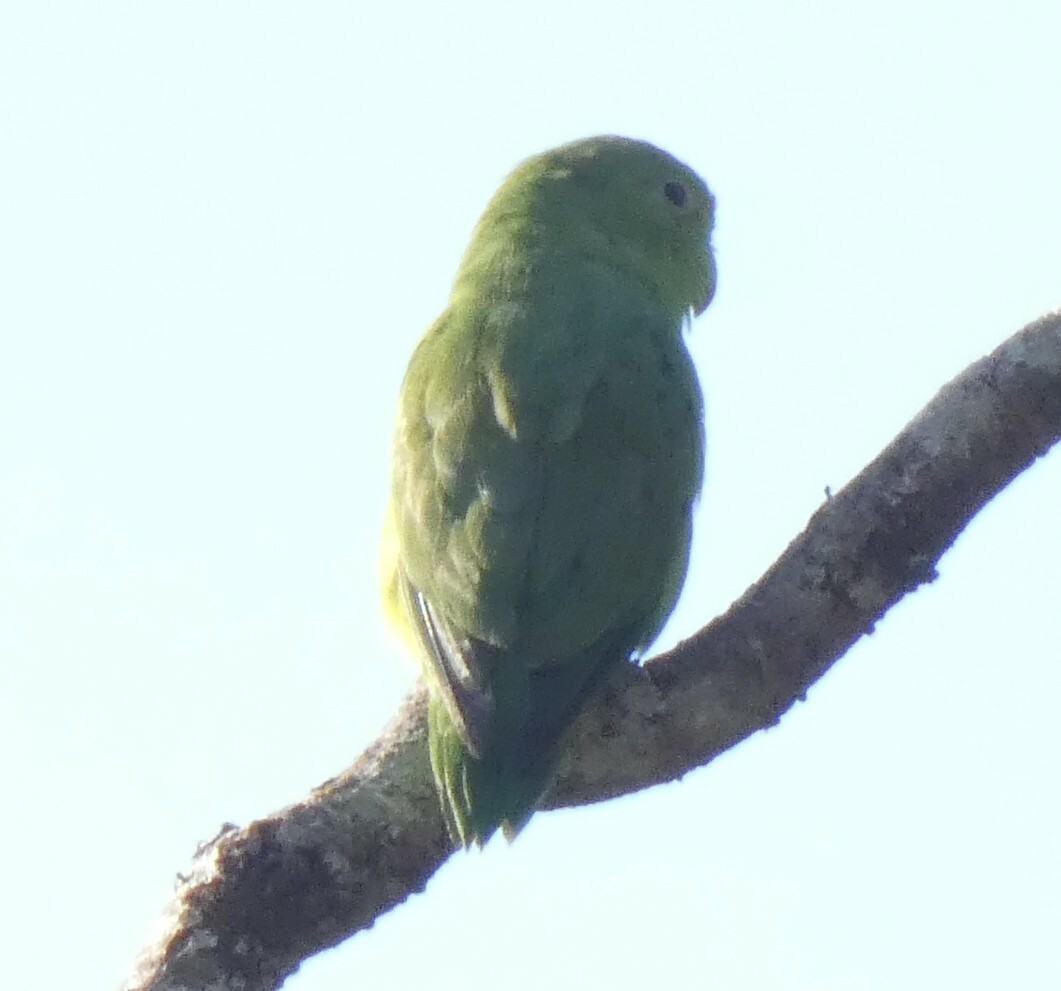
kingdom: Animalia
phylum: Chordata
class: Aves
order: Psittaciformes
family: Psittacidae
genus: Forpus
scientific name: Forpus xanthopterygius
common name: Blue-winged parrotlet
